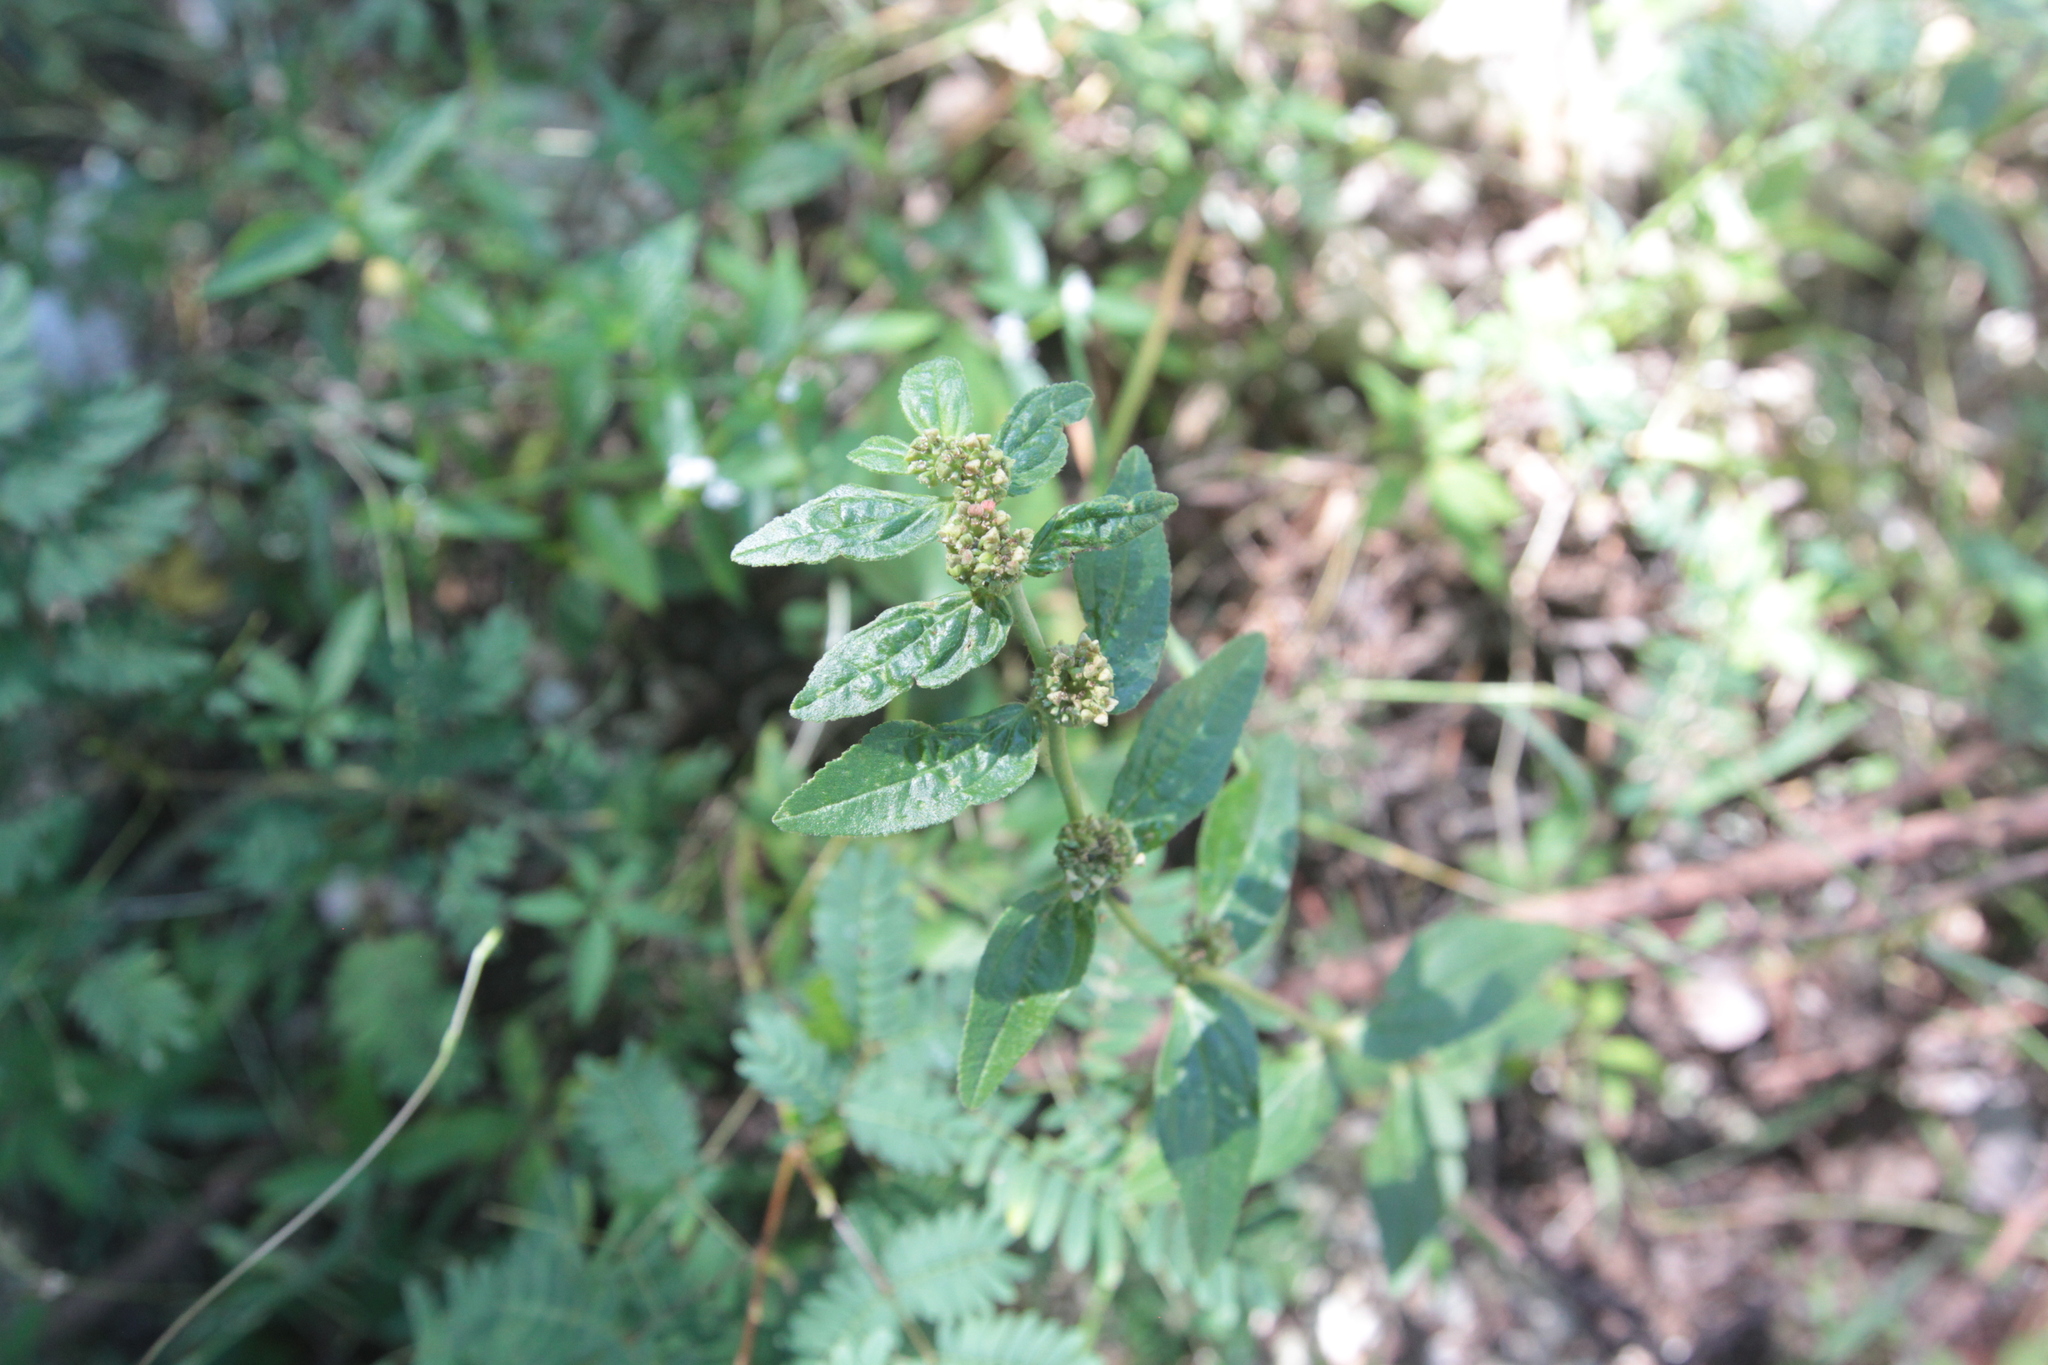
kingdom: Plantae
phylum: Tracheophyta
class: Magnoliopsida
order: Malpighiales
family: Euphorbiaceae
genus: Euphorbia
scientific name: Euphorbia hirta
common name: Pillpod sandmat
